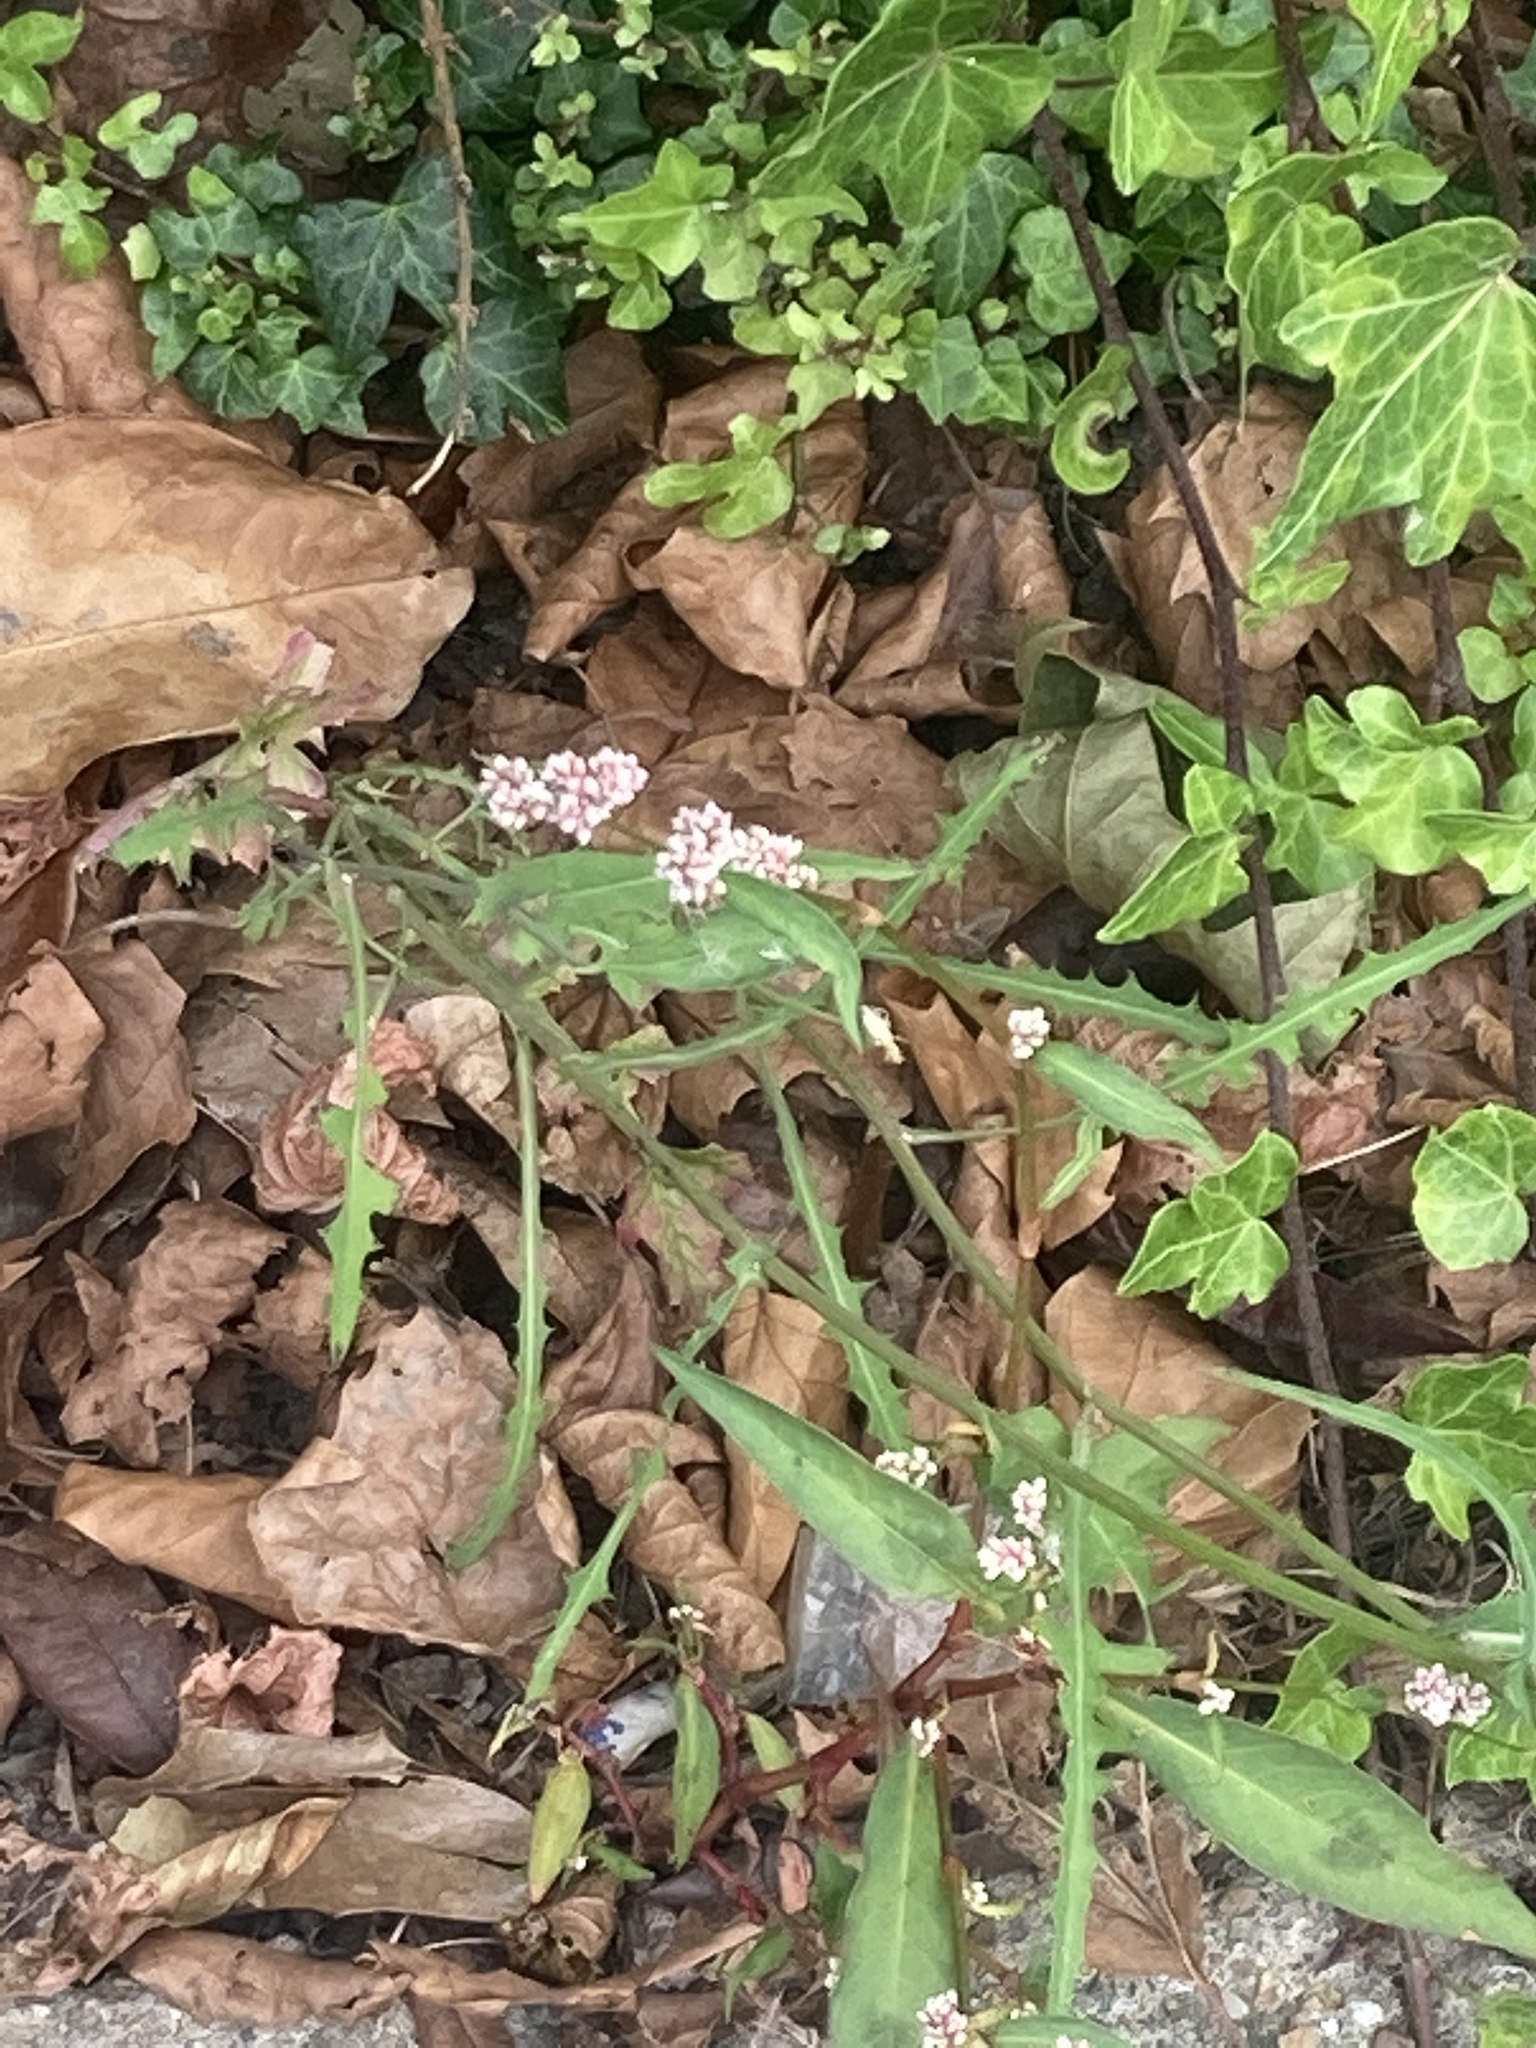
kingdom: Plantae
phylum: Tracheophyta
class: Magnoliopsida
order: Caryophyllales
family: Polygonaceae
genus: Persicaria
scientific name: Persicaria maculosa
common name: Redshank
